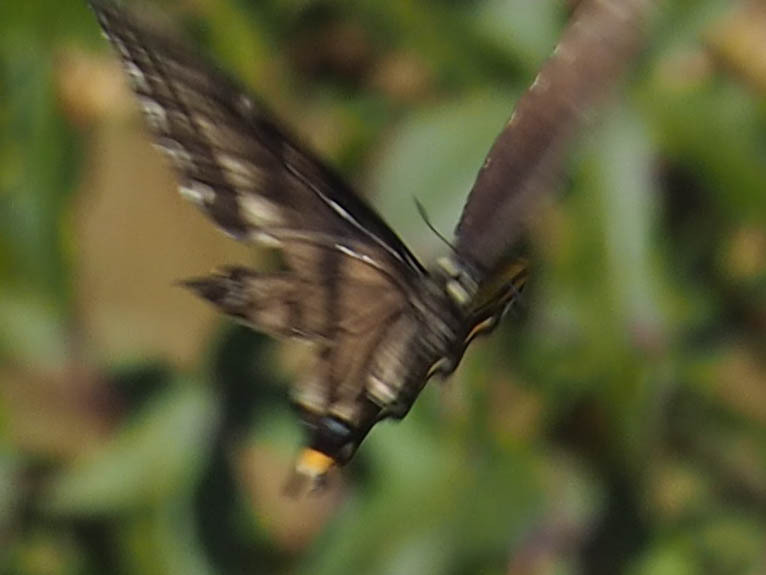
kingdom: Animalia
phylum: Arthropoda
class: Insecta
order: Lepidoptera
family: Papilionidae
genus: Papilio
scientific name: Papilio glaucus
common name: Tiger swallowtail
